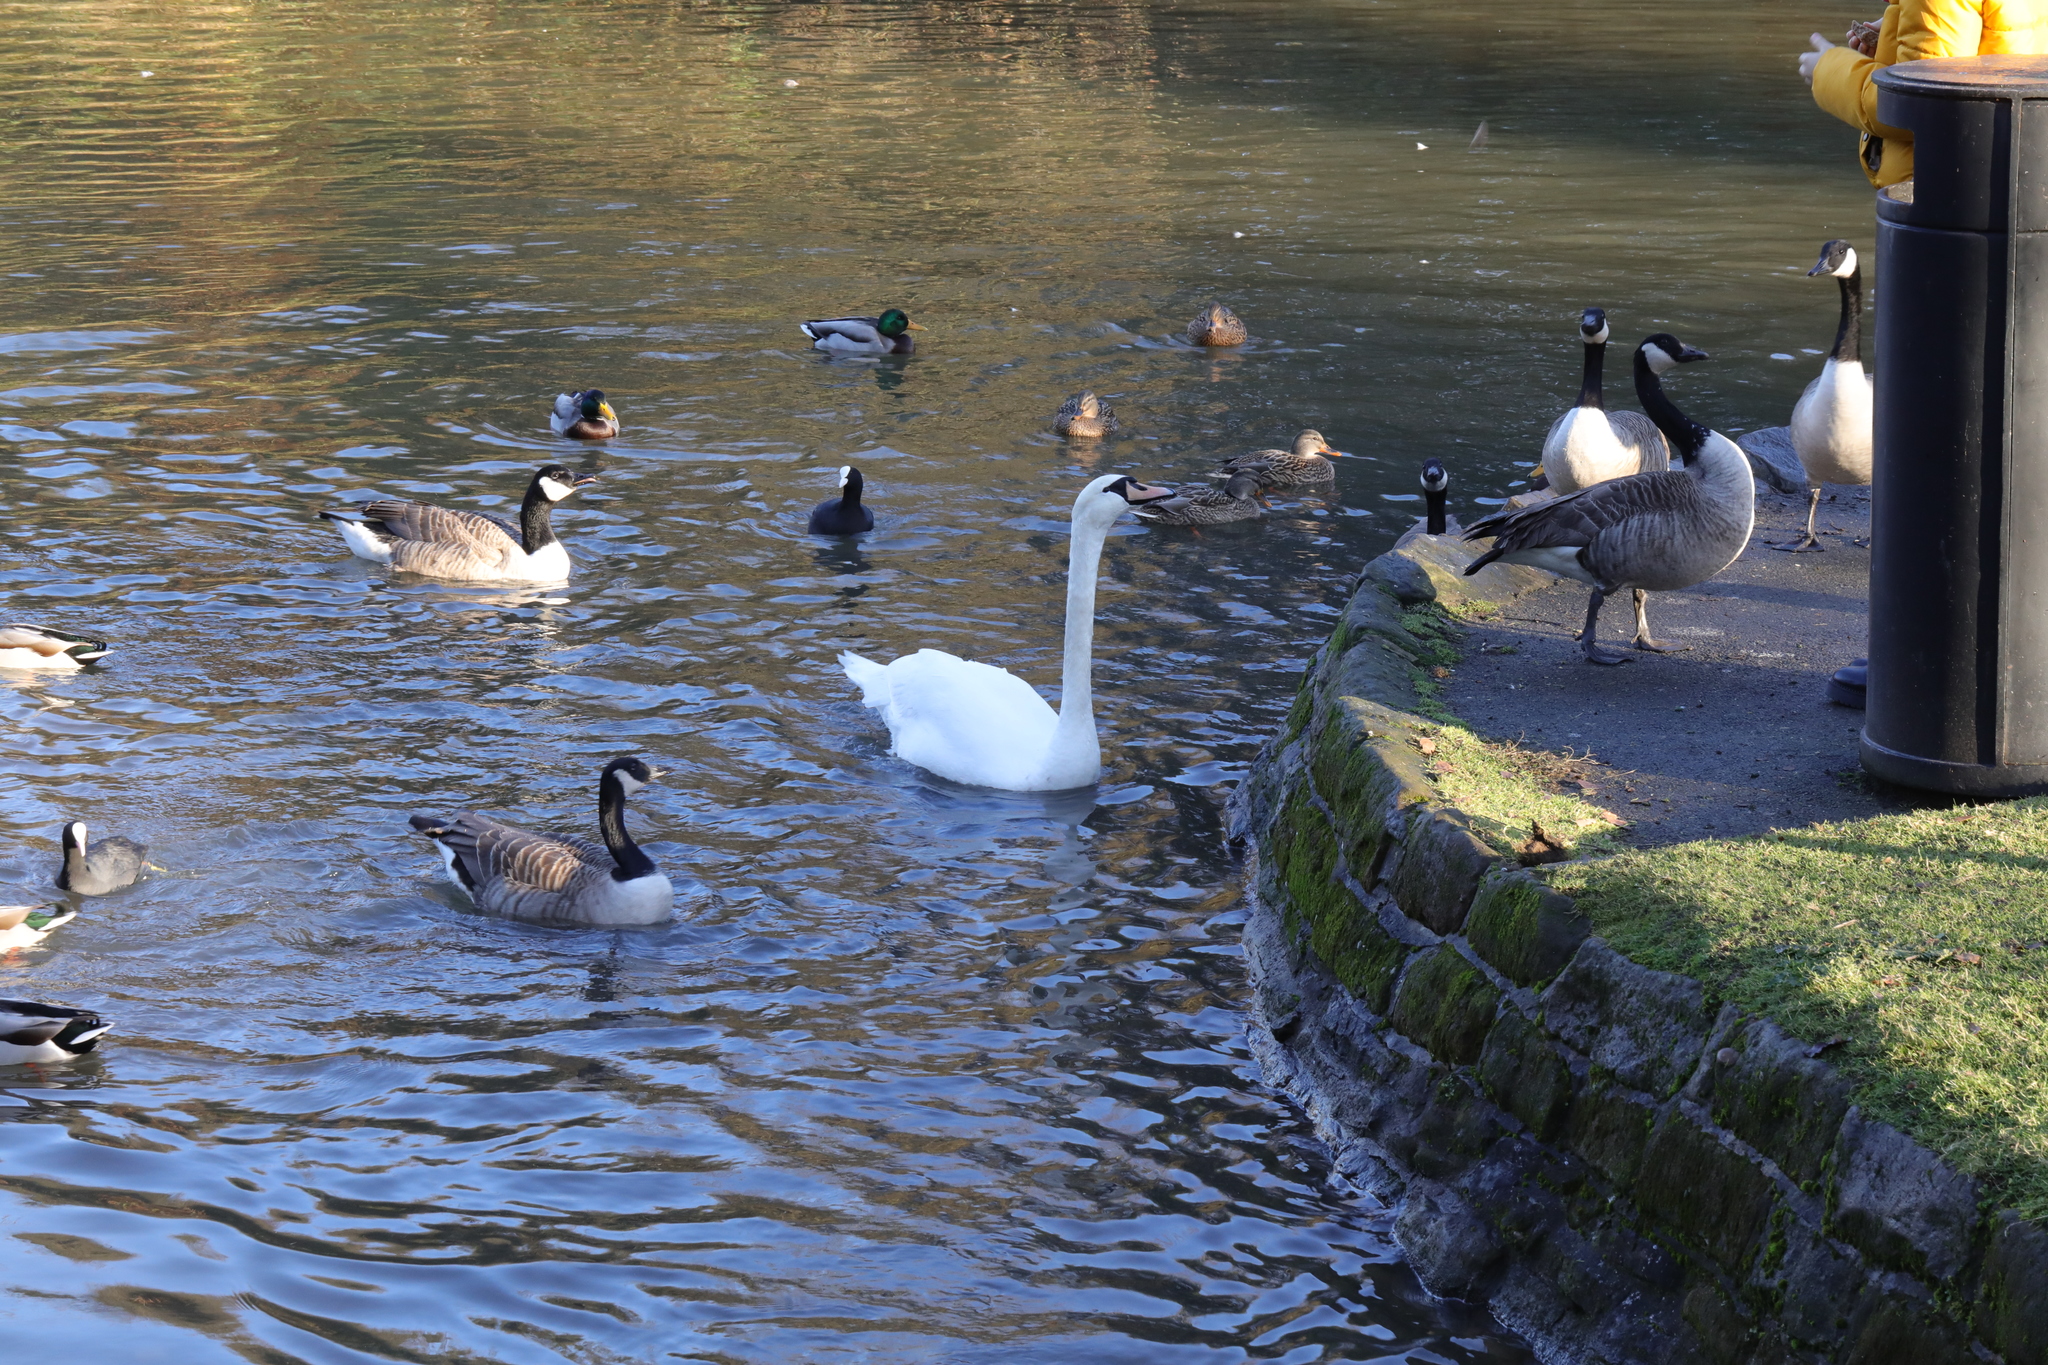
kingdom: Animalia
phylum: Chordata
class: Aves
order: Anseriformes
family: Anatidae
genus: Cygnus
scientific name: Cygnus olor
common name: Mute swan
